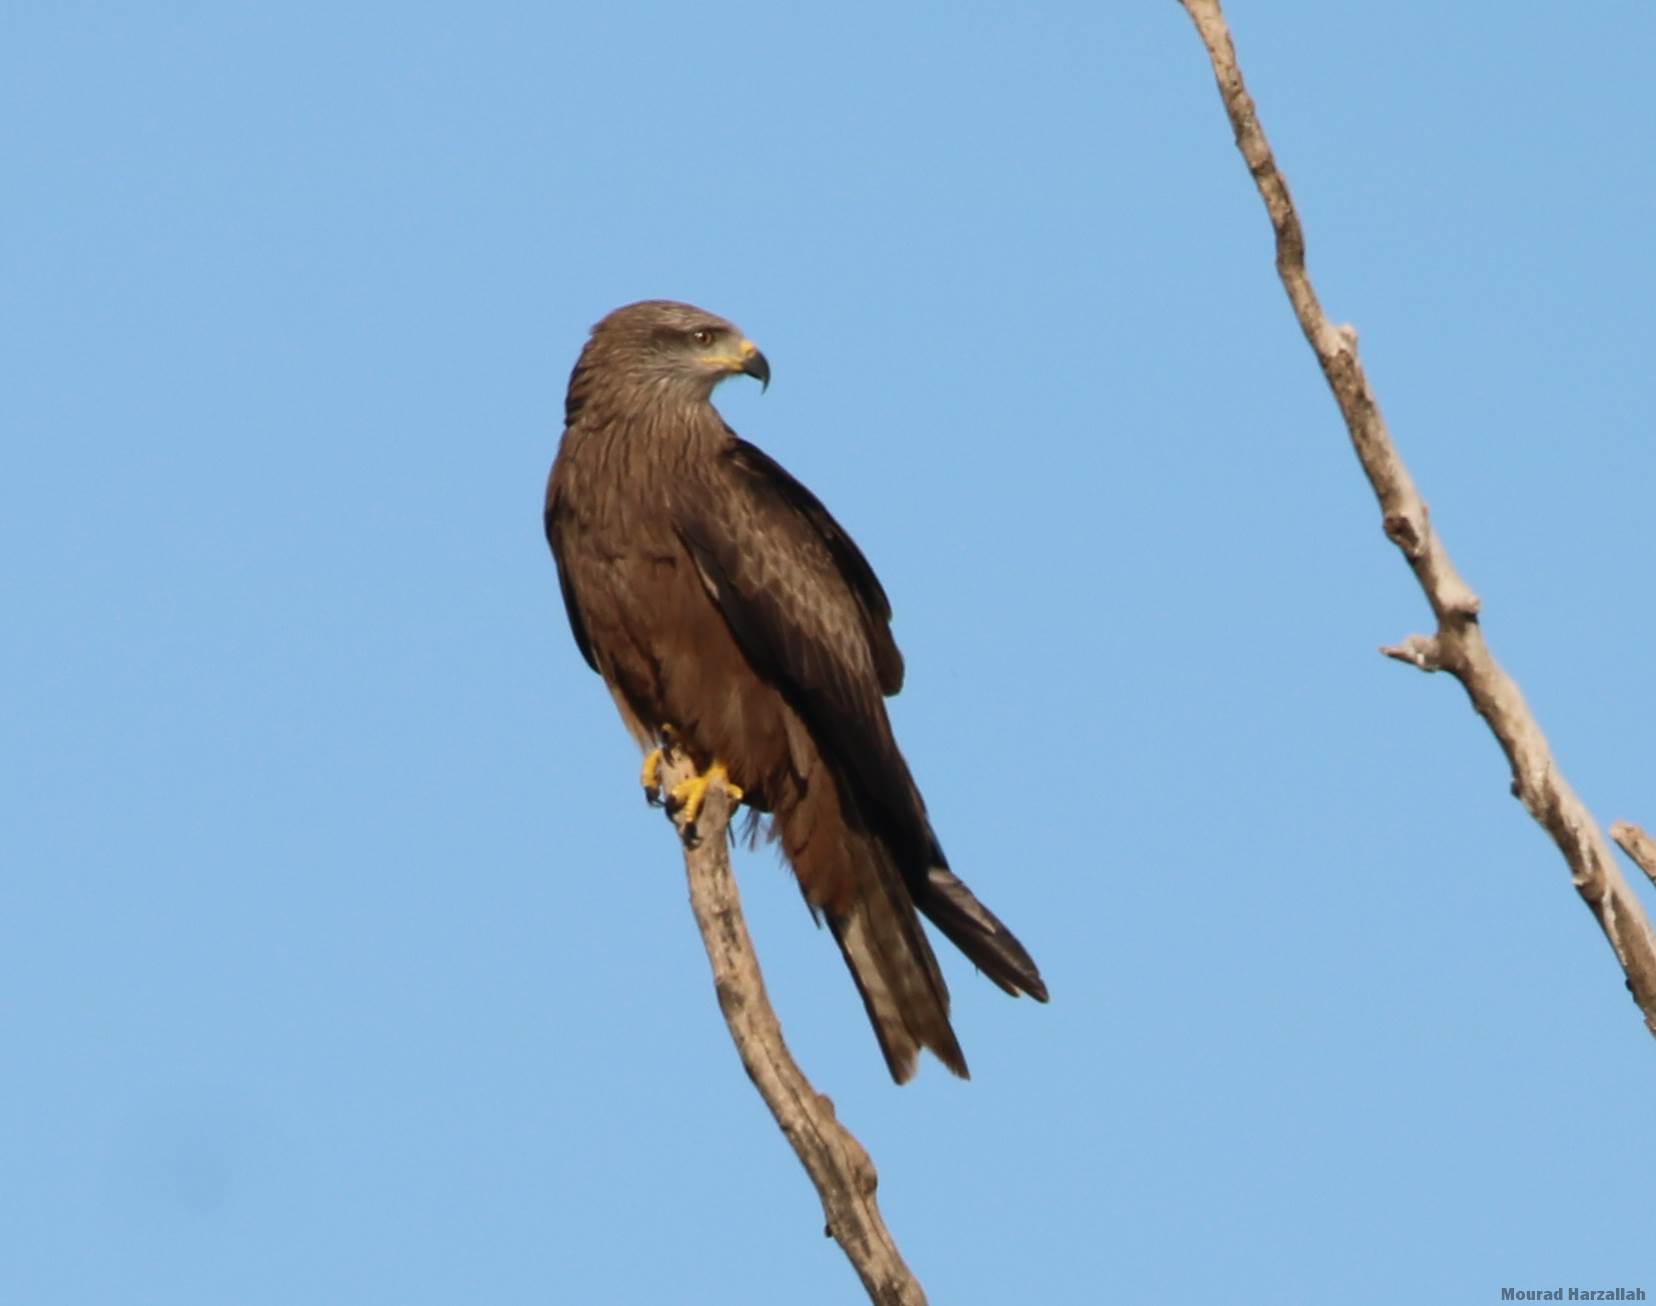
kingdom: Animalia
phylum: Chordata
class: Aves
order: Accipitriformes
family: Accipitridae
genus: Milvus
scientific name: Milvus migrans
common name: Black kite
